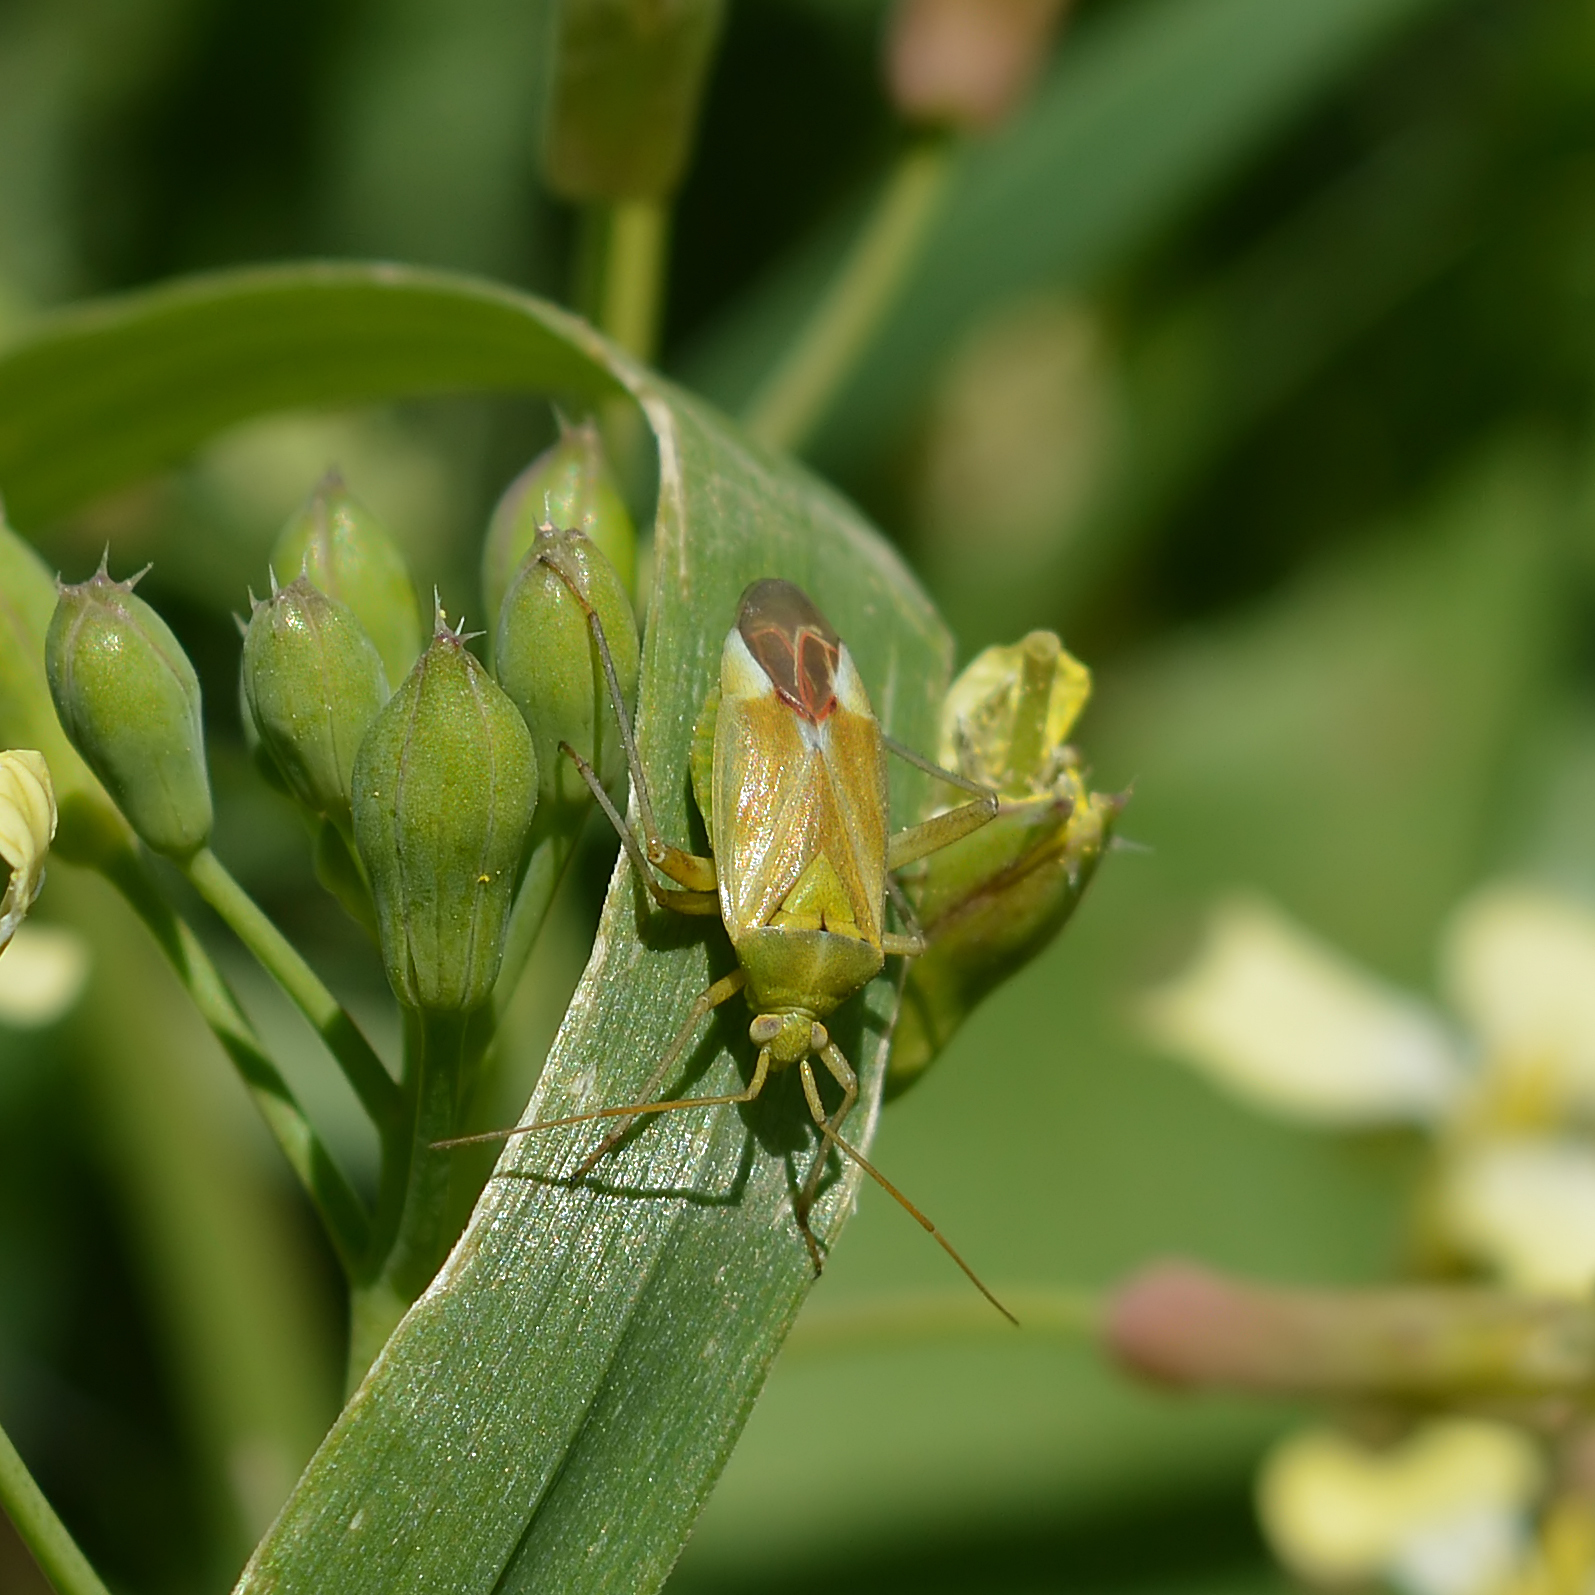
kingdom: Animalia
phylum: Arthropoda
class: Insecta
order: Hemiptera
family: Miridae
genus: Reuterista
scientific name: Reuterista instabilis
